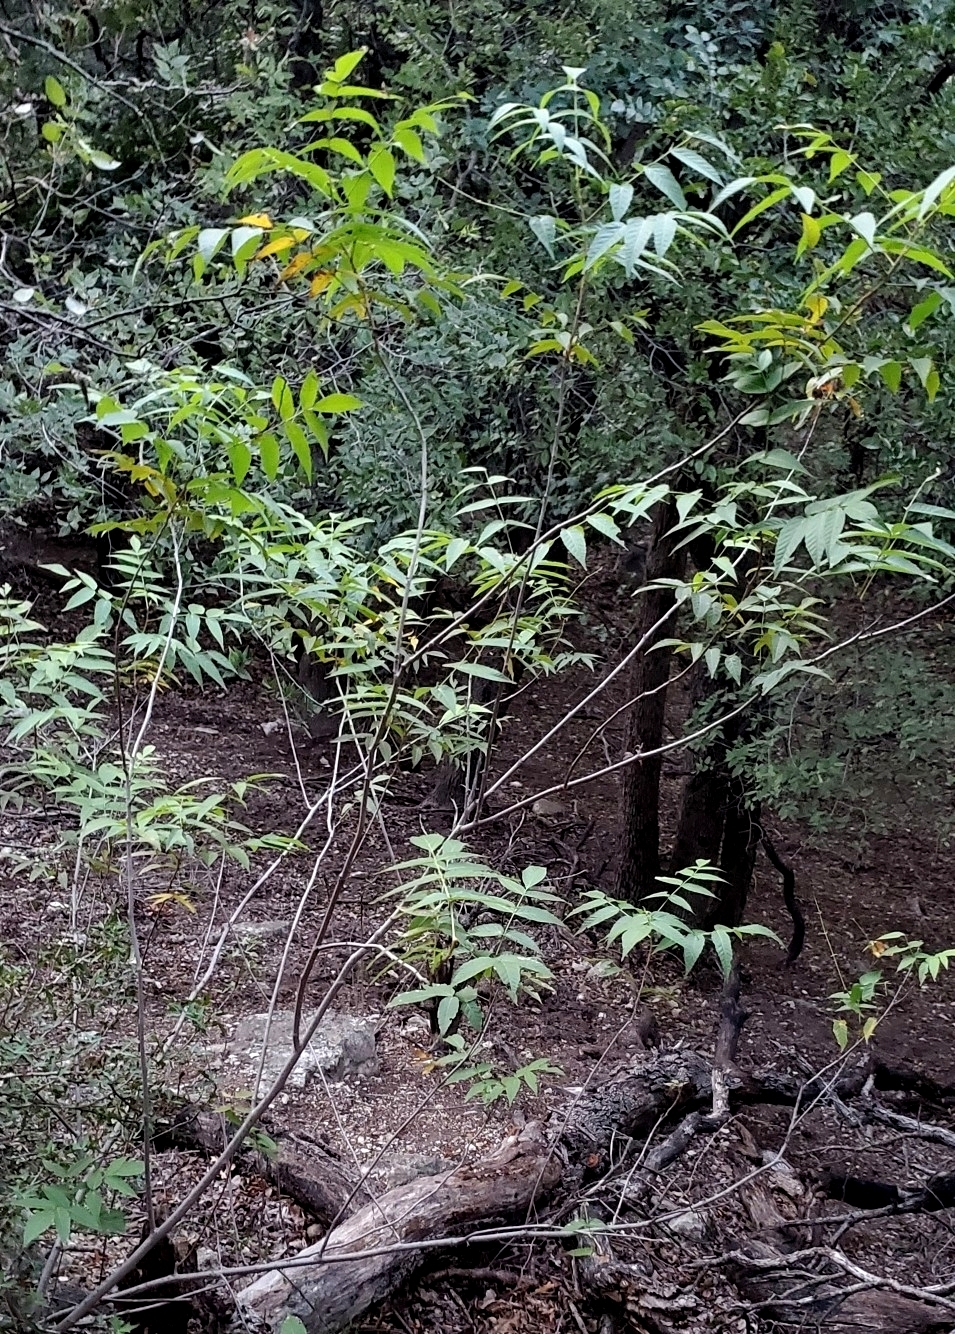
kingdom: Plantae
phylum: Tracheophyta
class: Magnoliopsida
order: Fagales
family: Juglandaceae
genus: Juglans
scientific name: Juglans major
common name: Arizona walnut
